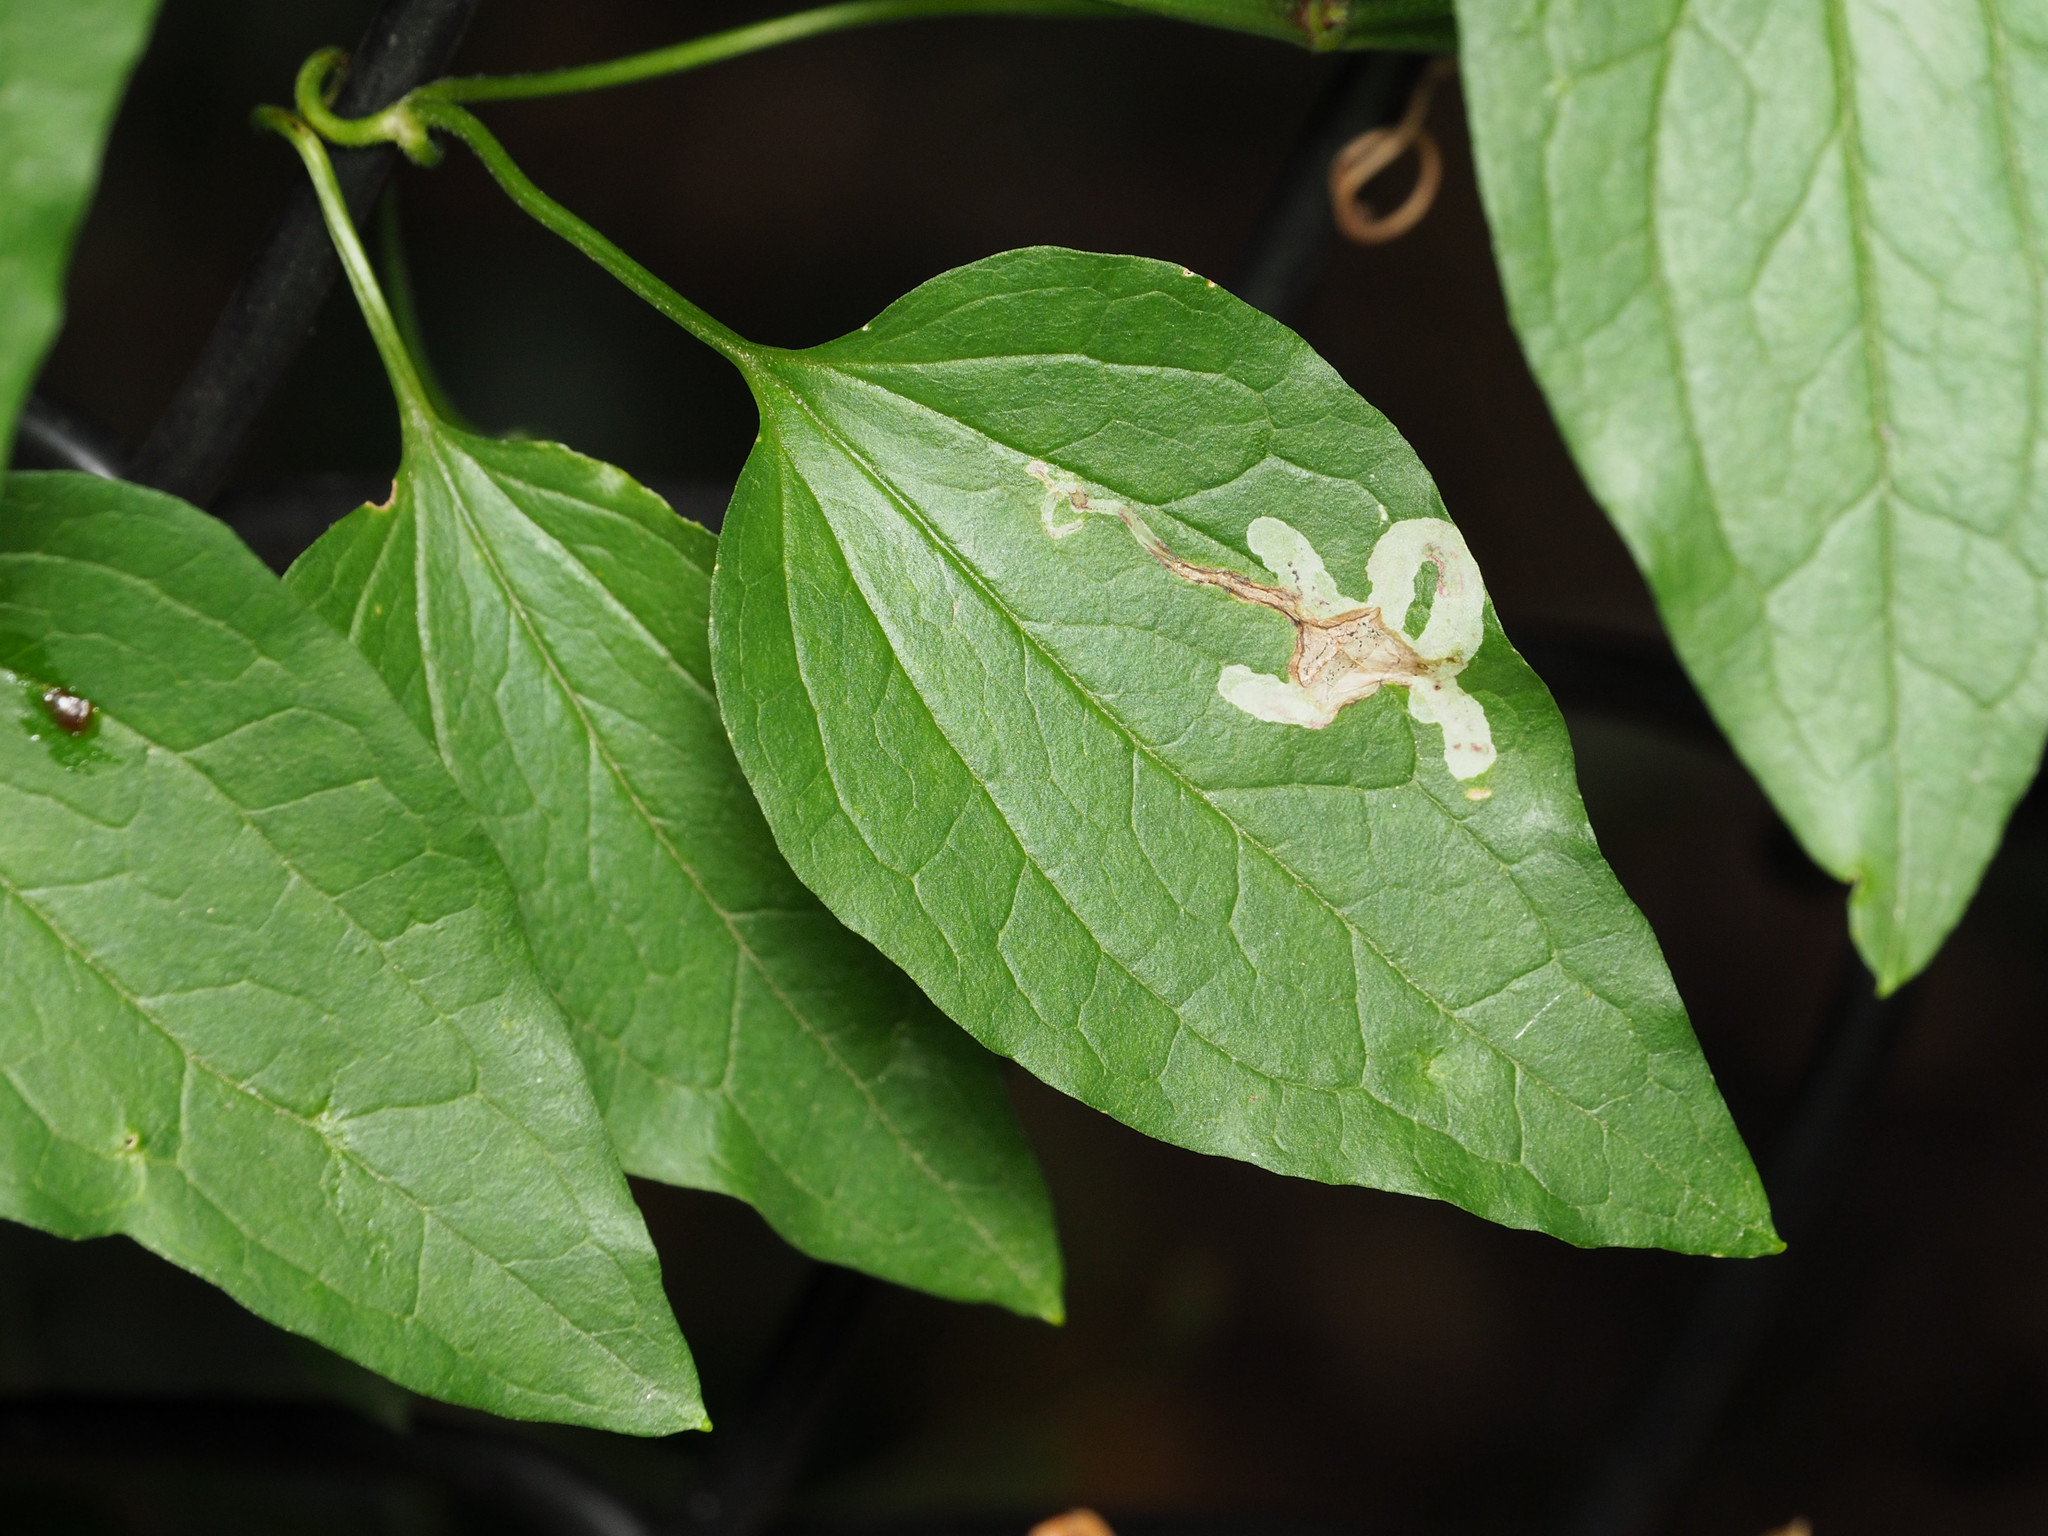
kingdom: Animalia
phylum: Arthropoda
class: Insecta
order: Diptera
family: Agromyzidae
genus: Phytomyza
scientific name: Phytomyza loewii
